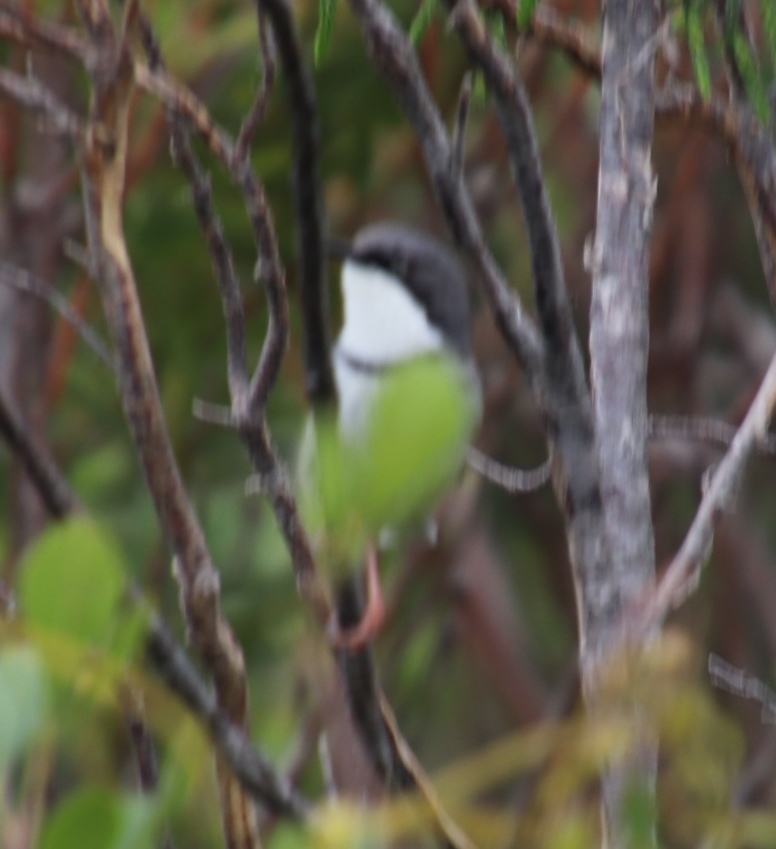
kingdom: Animalia
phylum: Chordata
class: Aves
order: Passeriformes
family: Cisticolidae
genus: Apalis
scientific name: Apalis thoracica
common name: Bar-throated apalis
